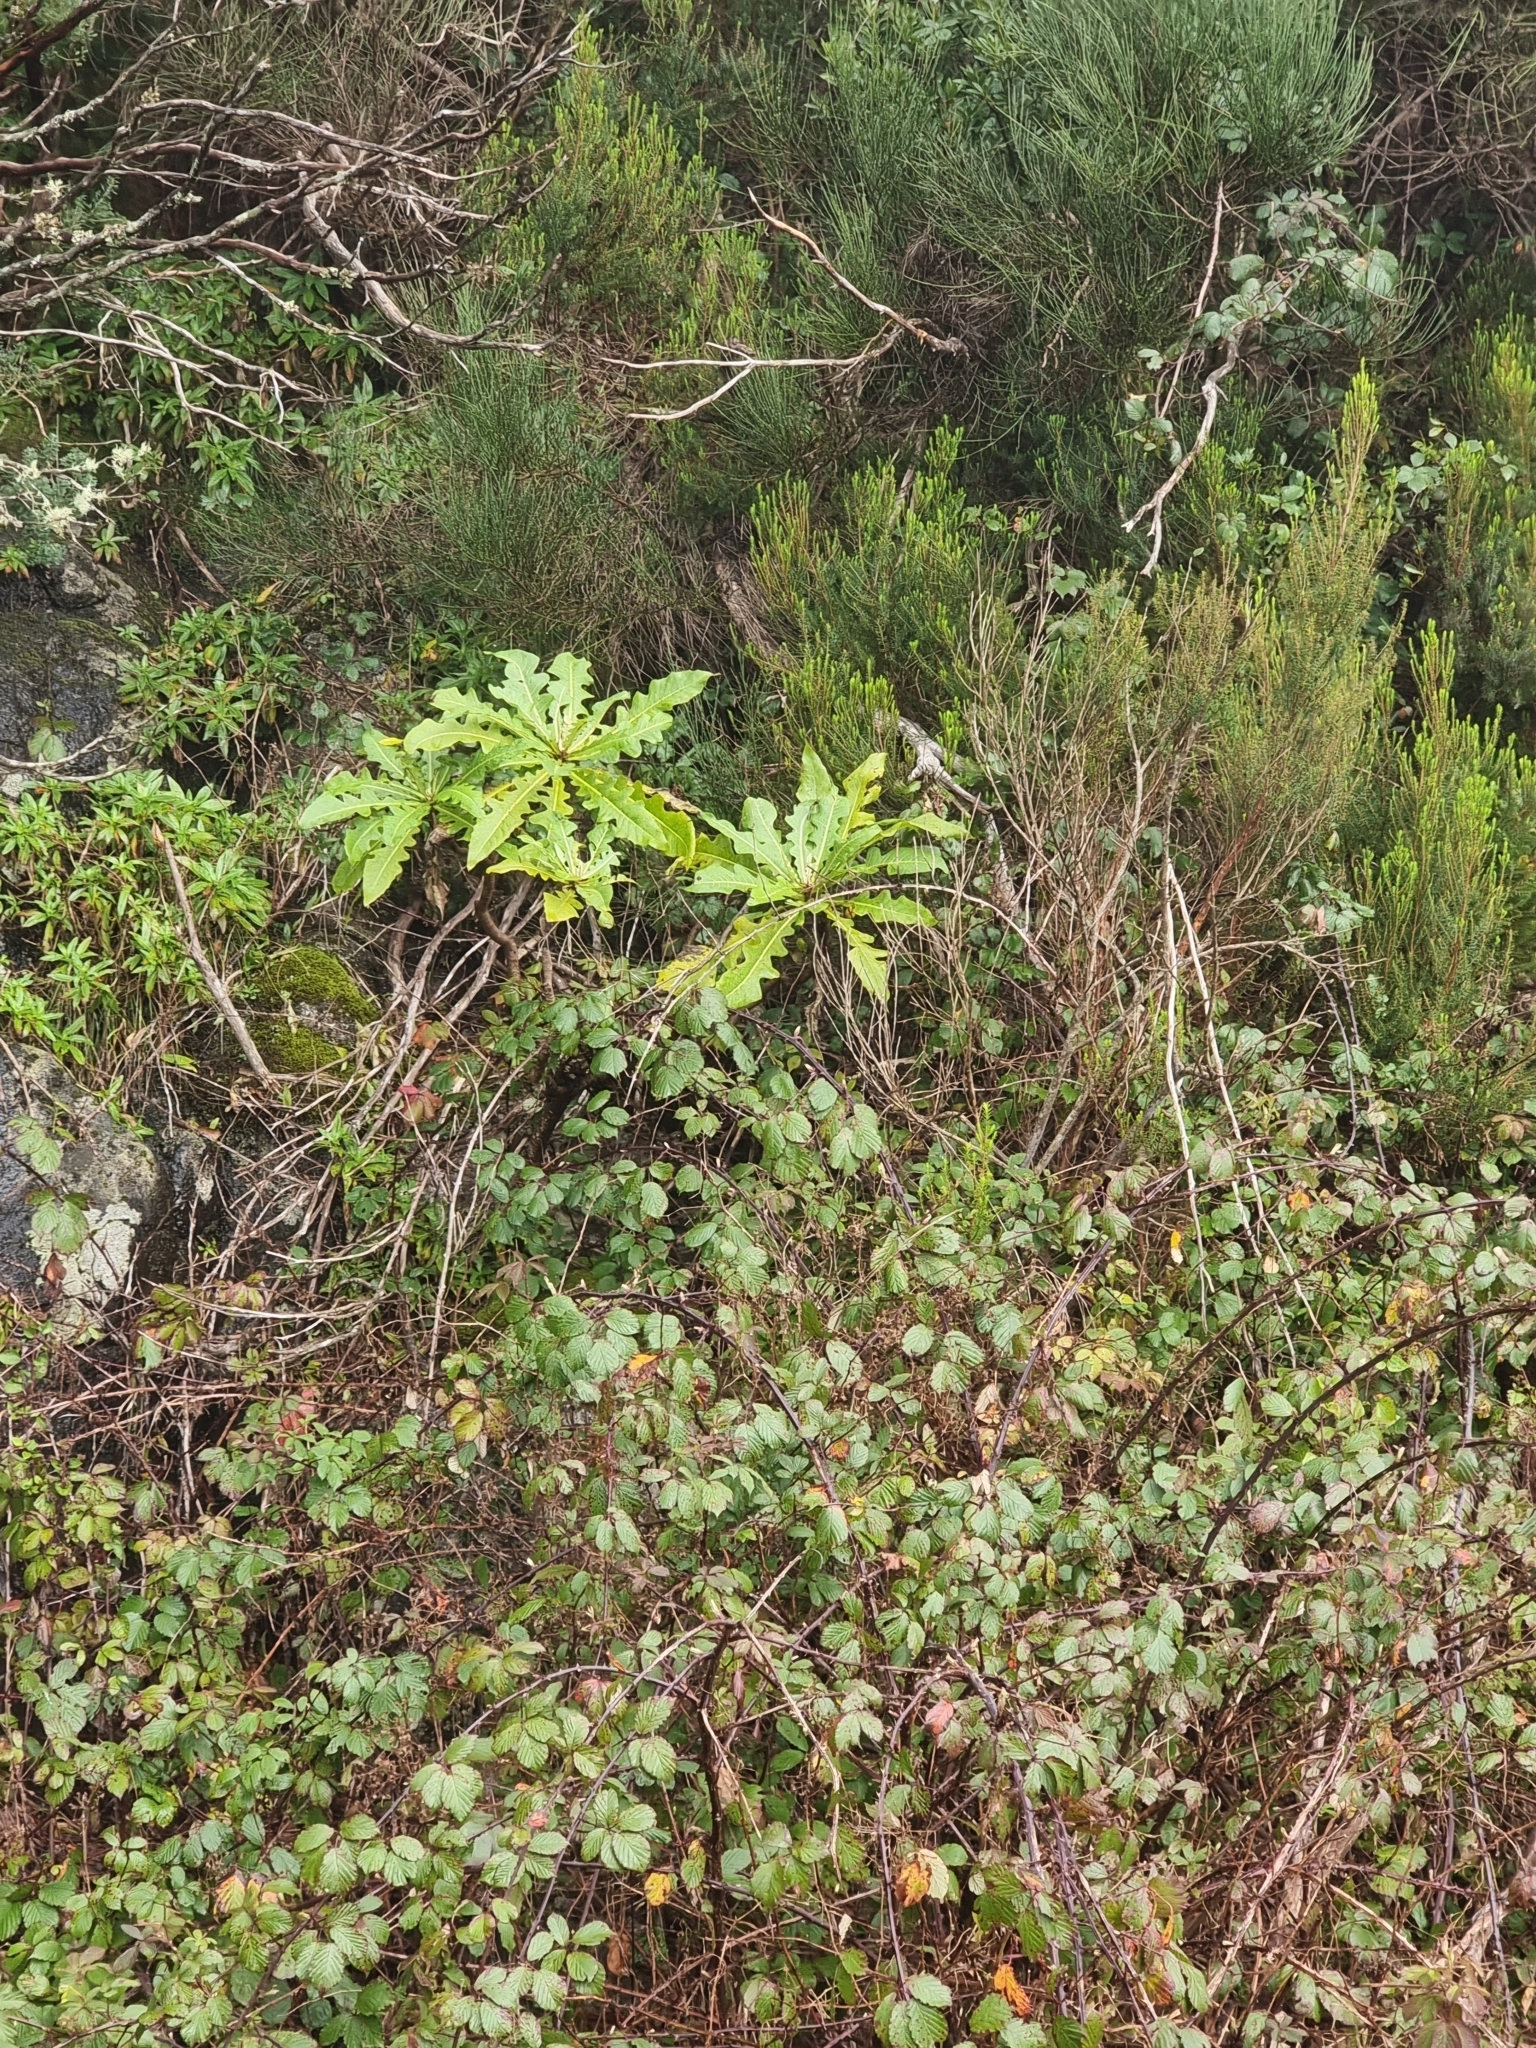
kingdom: Plantae
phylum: Tracheophyta
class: Magnoliopsida
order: Asterales
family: Asteraceae
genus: Sonchus
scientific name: Sonchus fruticosus
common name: Shrubby sow-thistle
